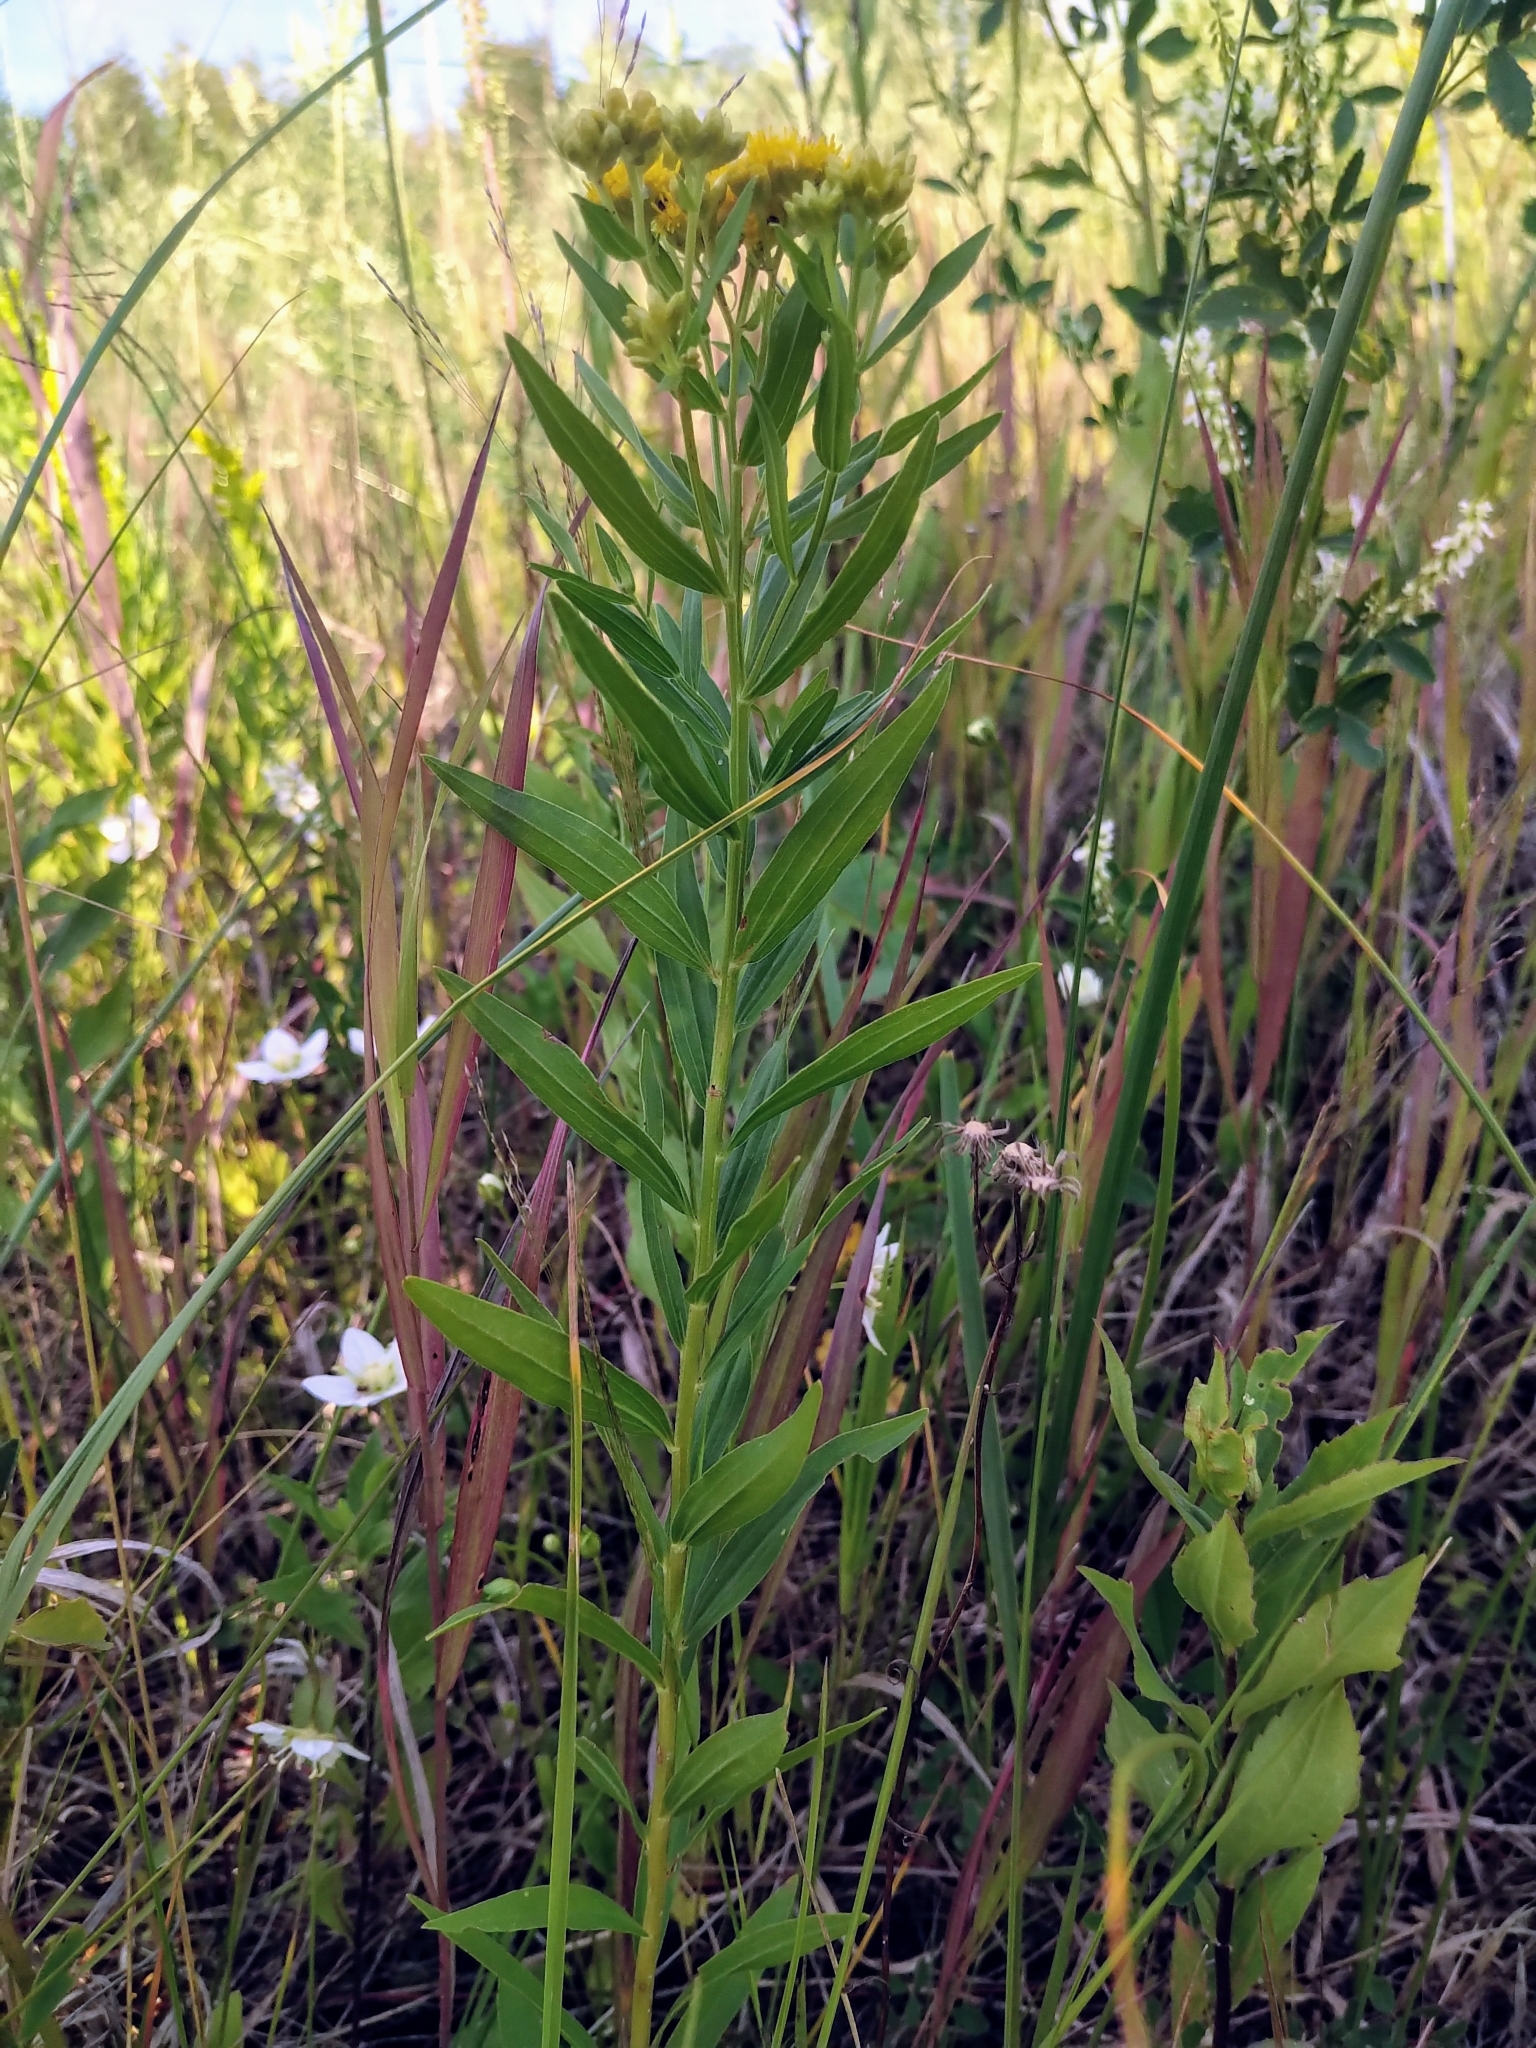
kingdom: Plantae
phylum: Tracheophyta
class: Magnoliopsida
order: Asterales
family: Asteraceae
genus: Euthamia
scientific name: Euthamia graminifolia
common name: Common goldentop
